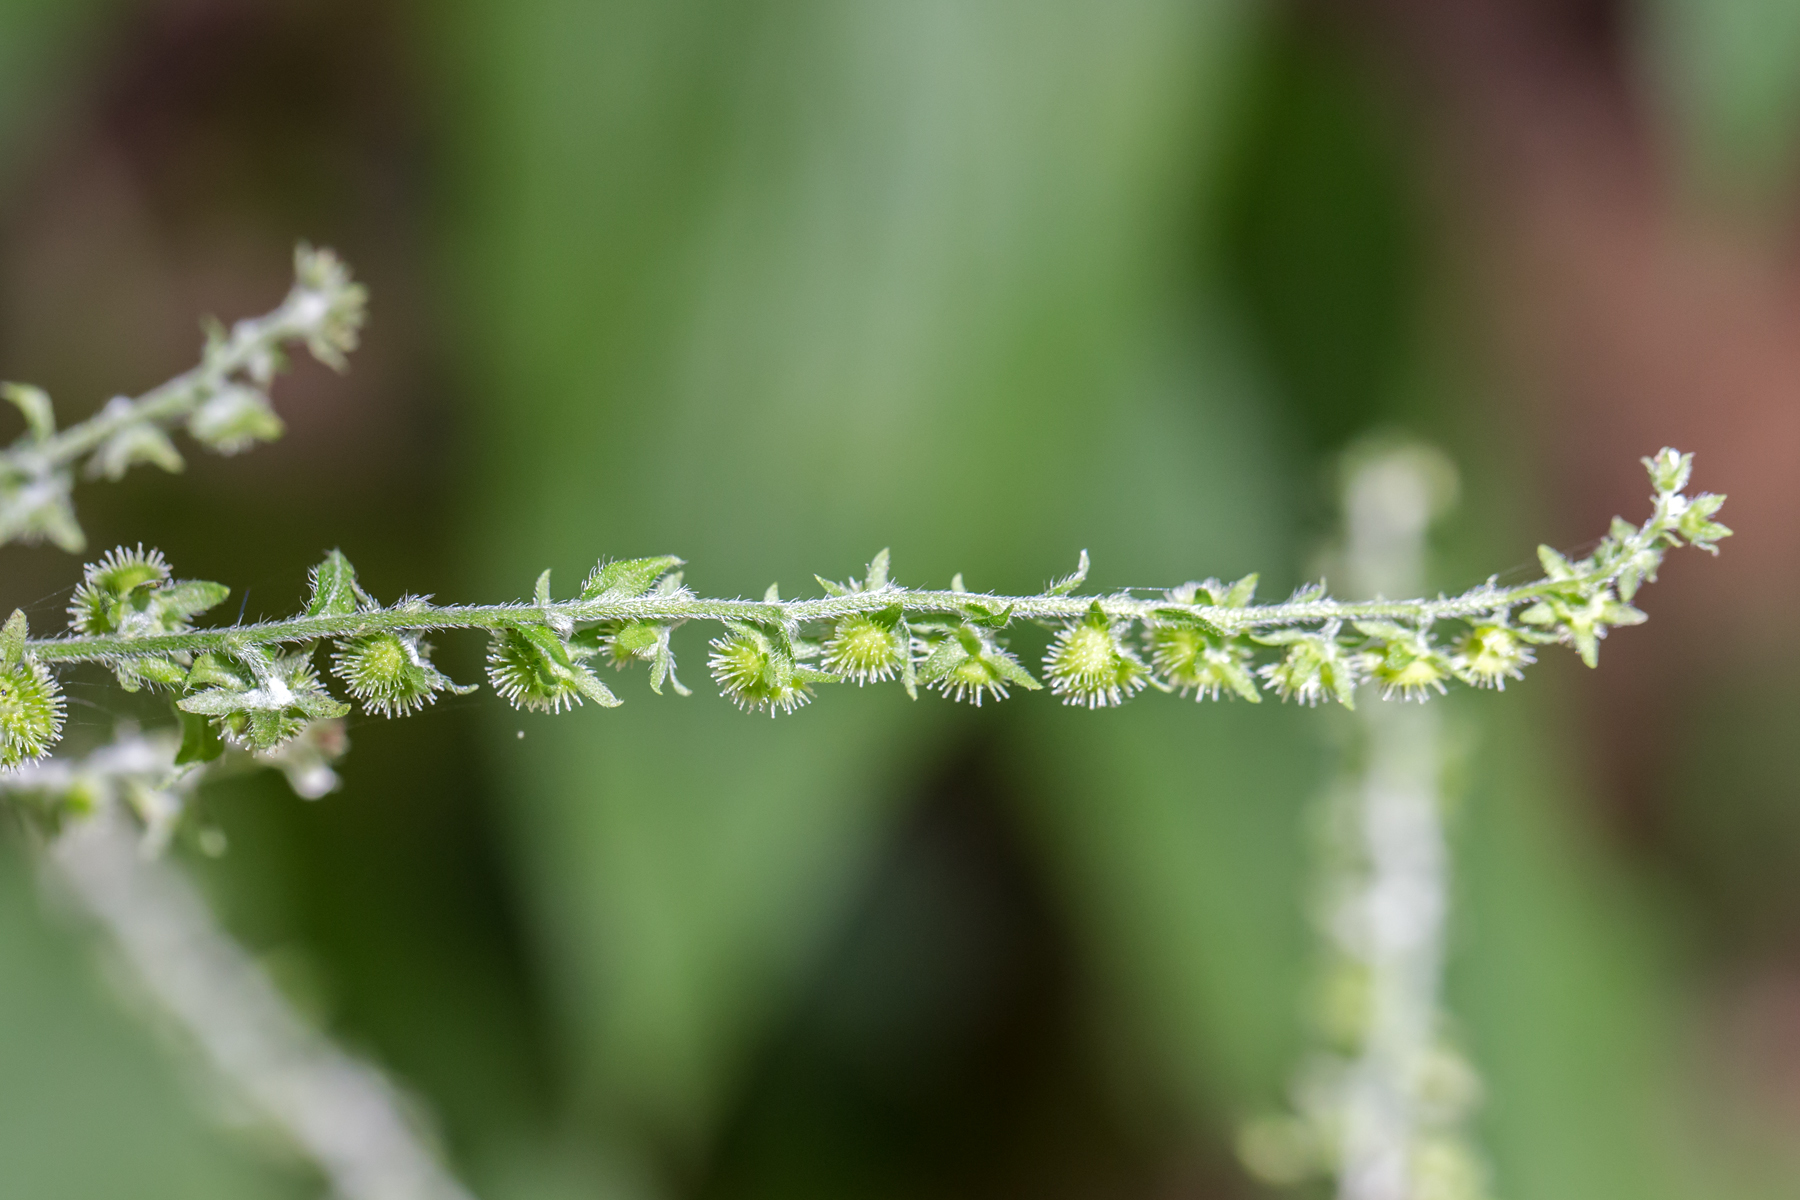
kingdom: Plantae
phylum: Tracheophyta
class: Magnoliopsida
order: Boraginales
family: Boraginaceae
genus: Hackelia
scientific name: Hackelia virginiana
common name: Beggar's-lice
